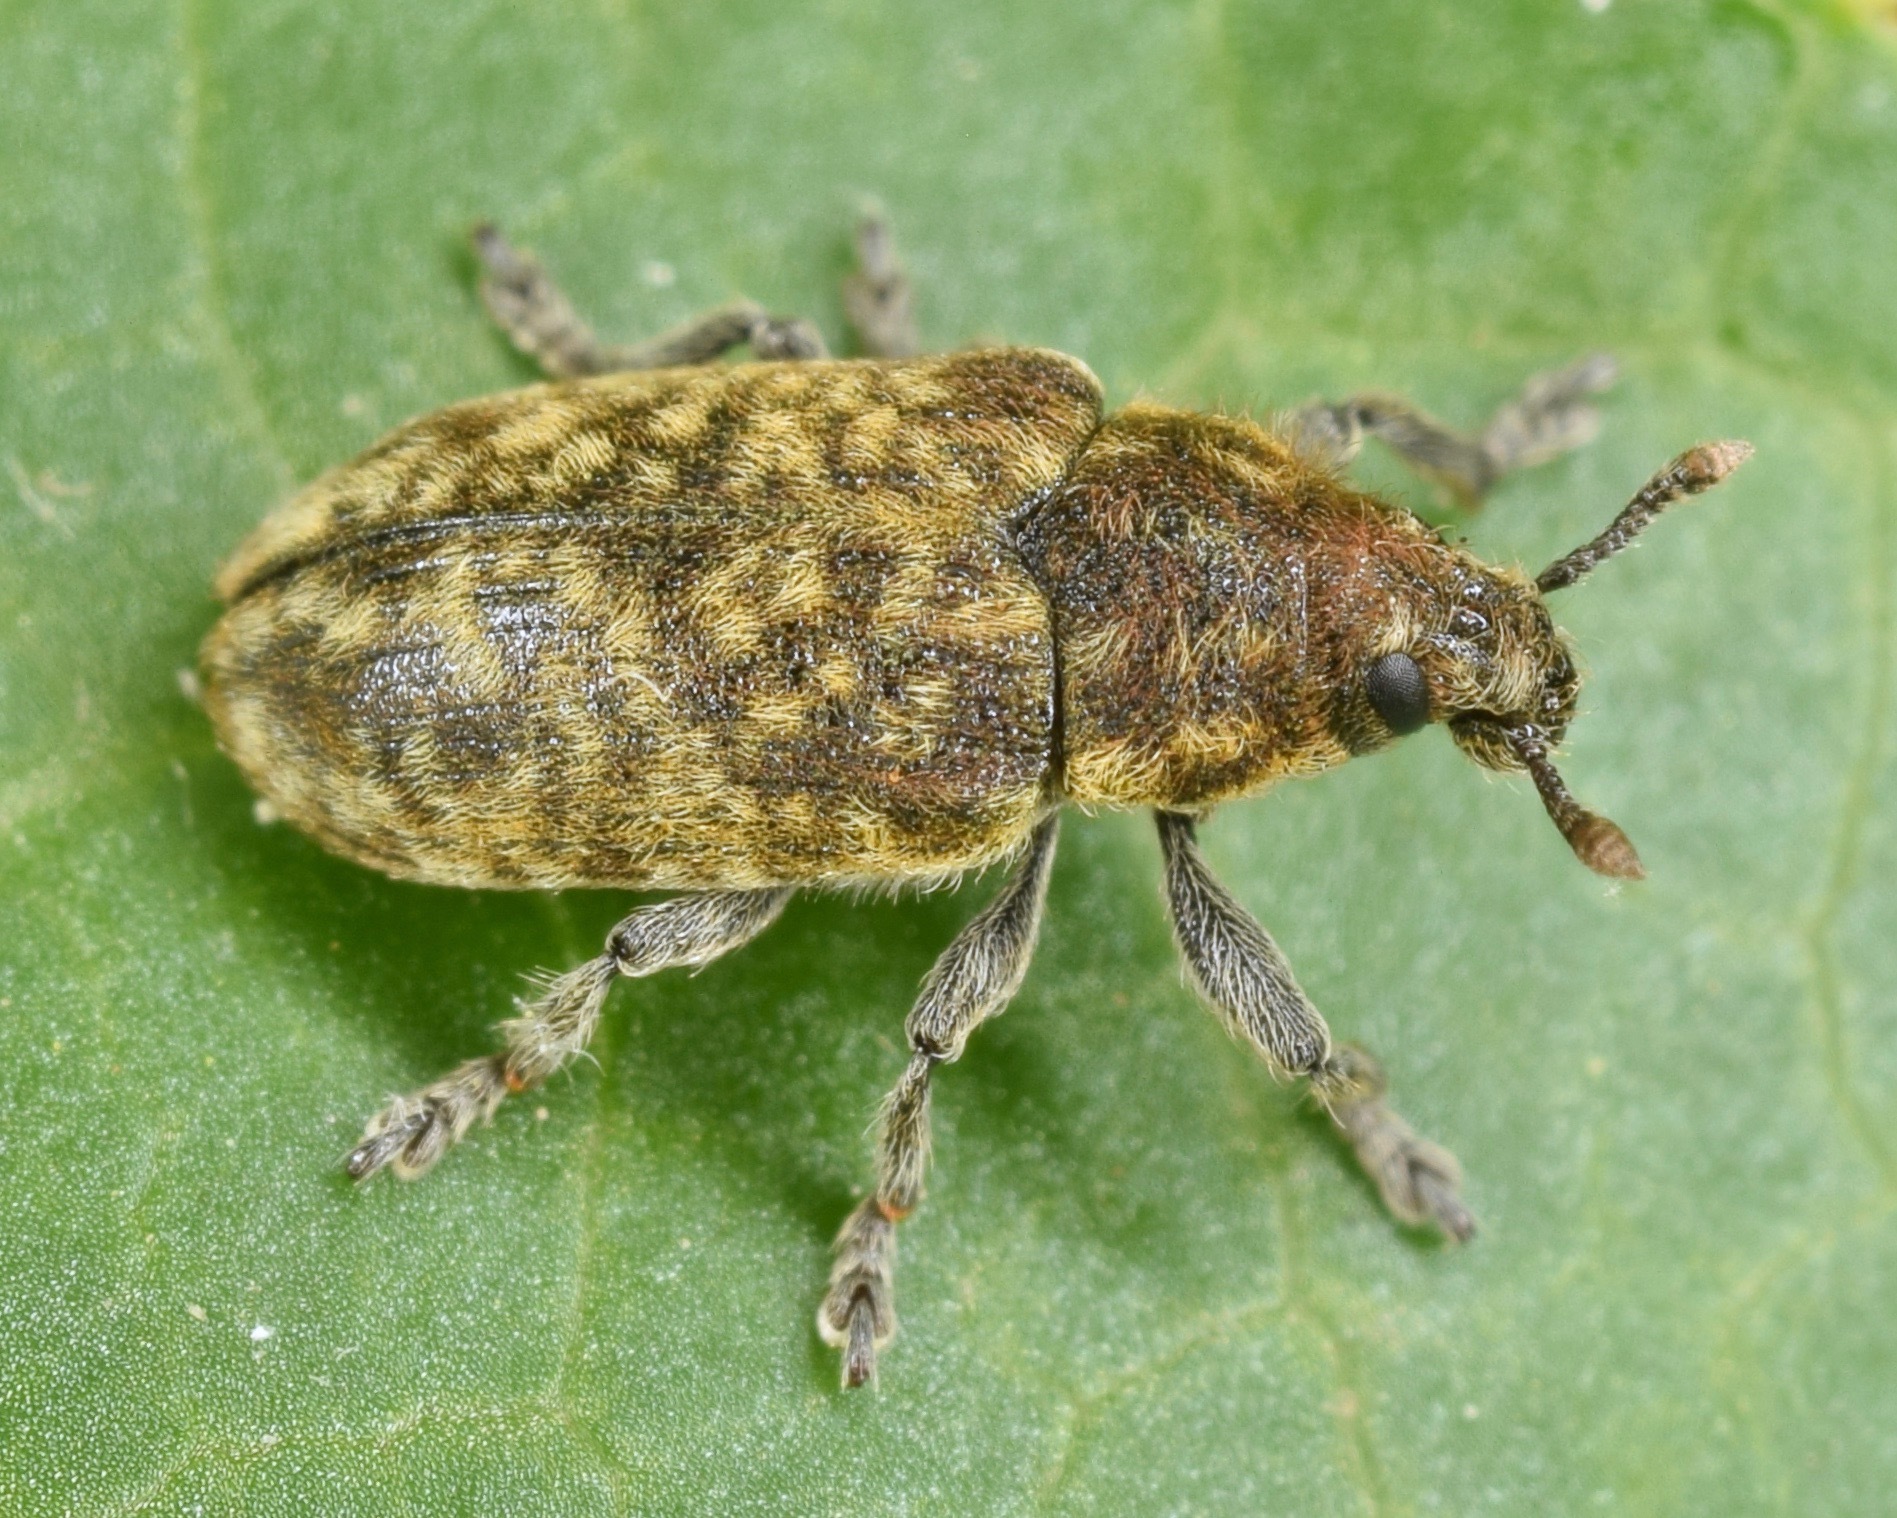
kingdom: Animalia
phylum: Arthropoda
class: Insecta
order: Coleoptera
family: Curculionidae
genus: Rhinocyllus
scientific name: Rhinocyllus conicus
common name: Weevil
